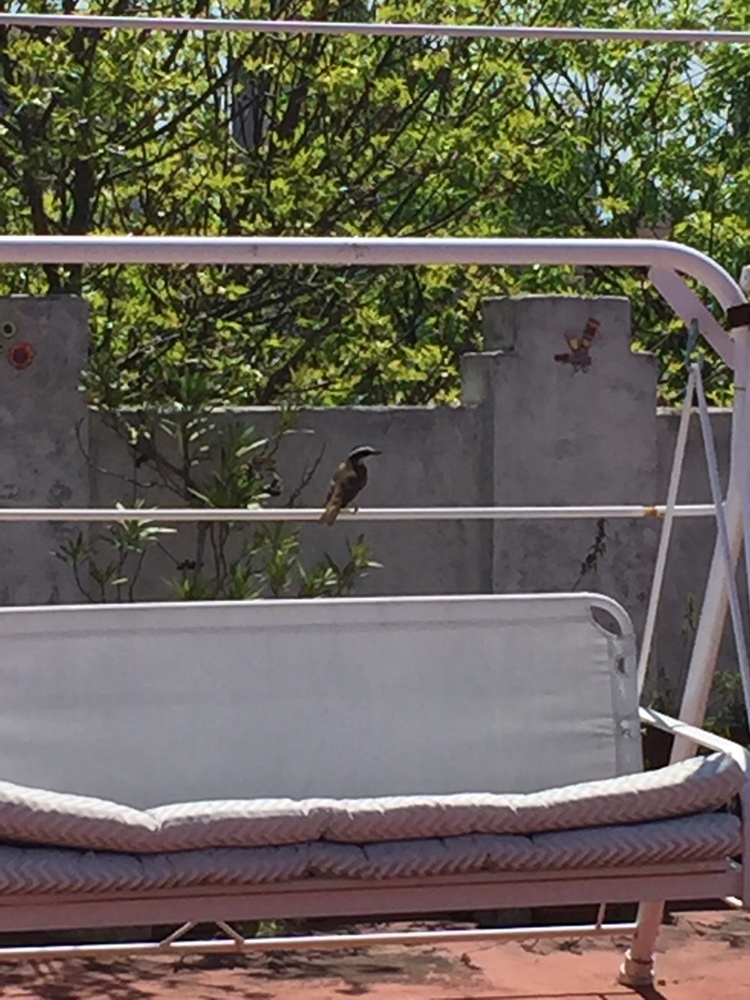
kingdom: Animalia
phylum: Chordata
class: Aves
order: Passeriformes
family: Tyrannidae
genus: Pitangus
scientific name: Pitangus sulphuratus
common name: Great kiskadee
